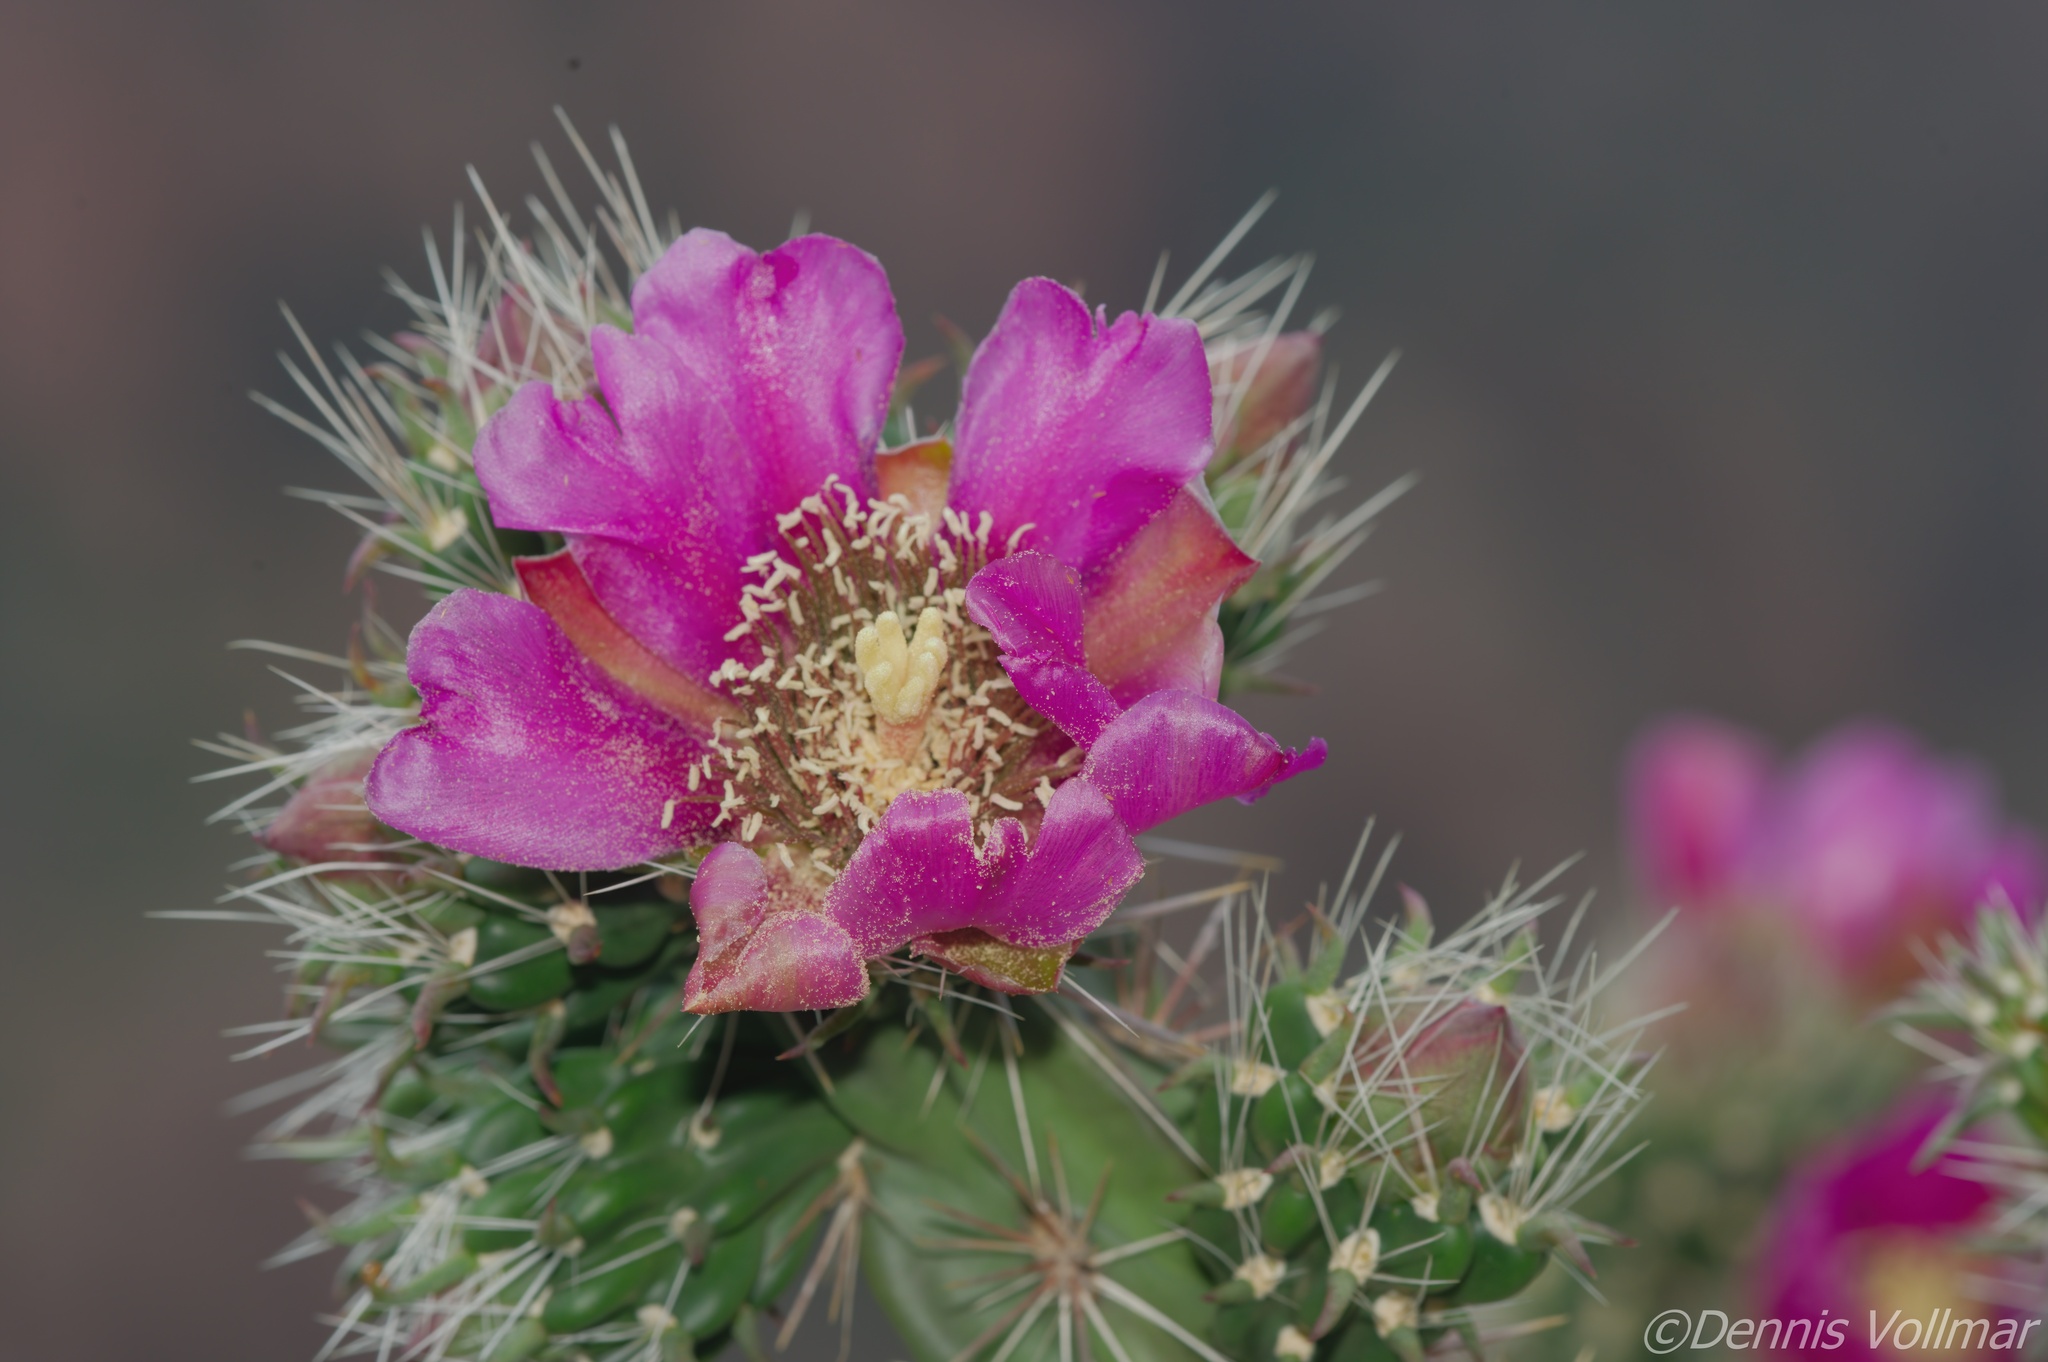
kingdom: Plantae
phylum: Tracheophyta
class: Magnoliopsida
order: Caryophyllales
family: Cactaceae
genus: Cylindropuntia
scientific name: Cylindropuntia imbricata
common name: Candelabrum cactus
